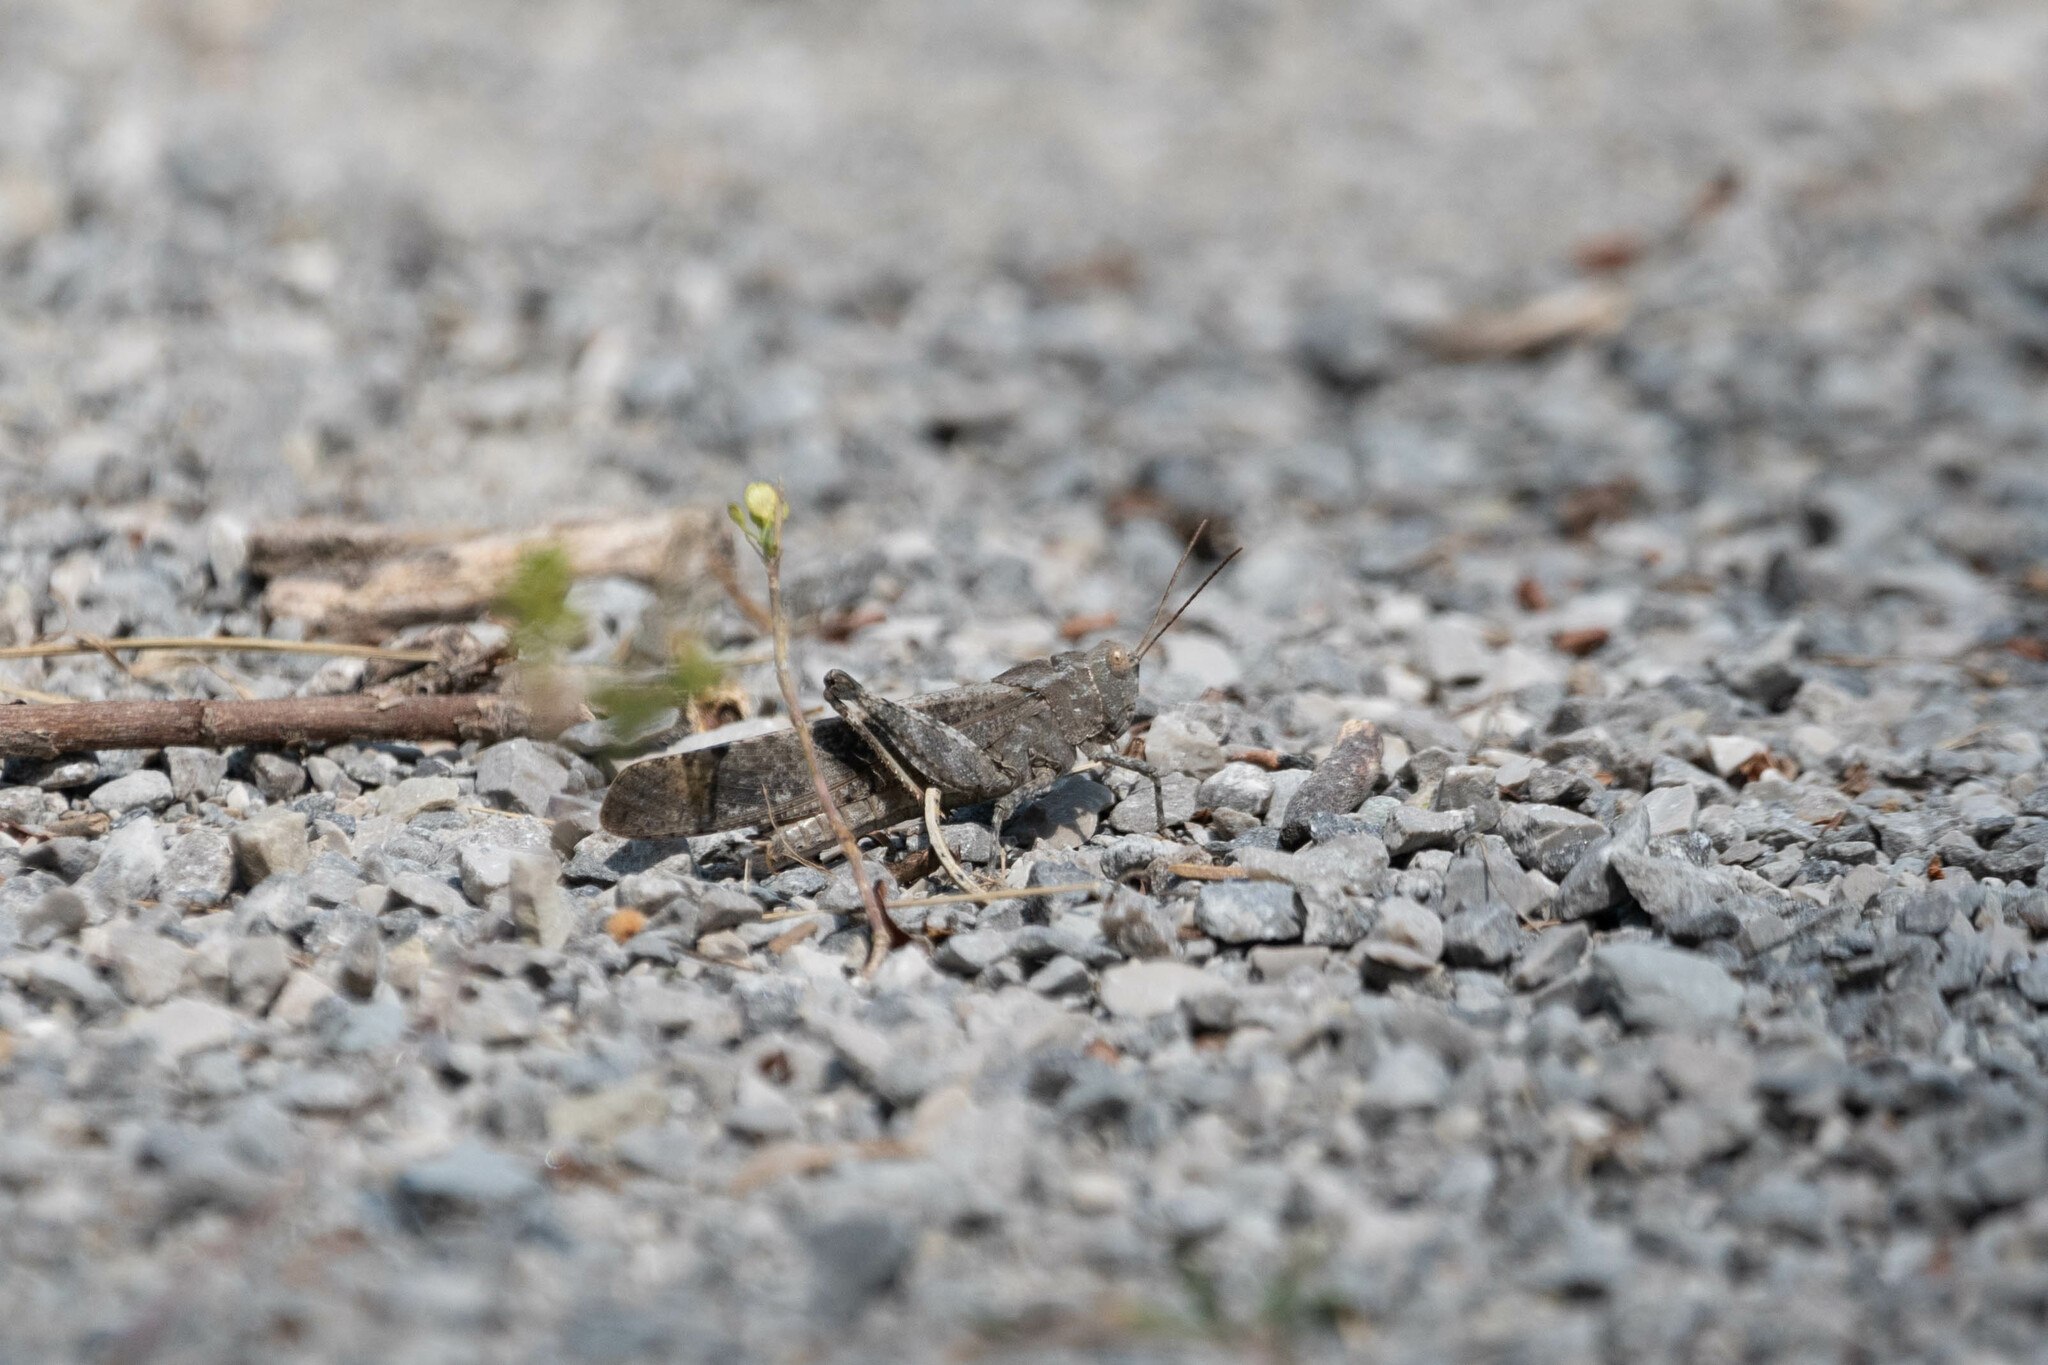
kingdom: Animalia
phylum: Arthropoda
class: Insecta
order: Orthoptera
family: Acrididae
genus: Dissosteira
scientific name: Dissosteira carolina
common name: Carolina grasshopper
